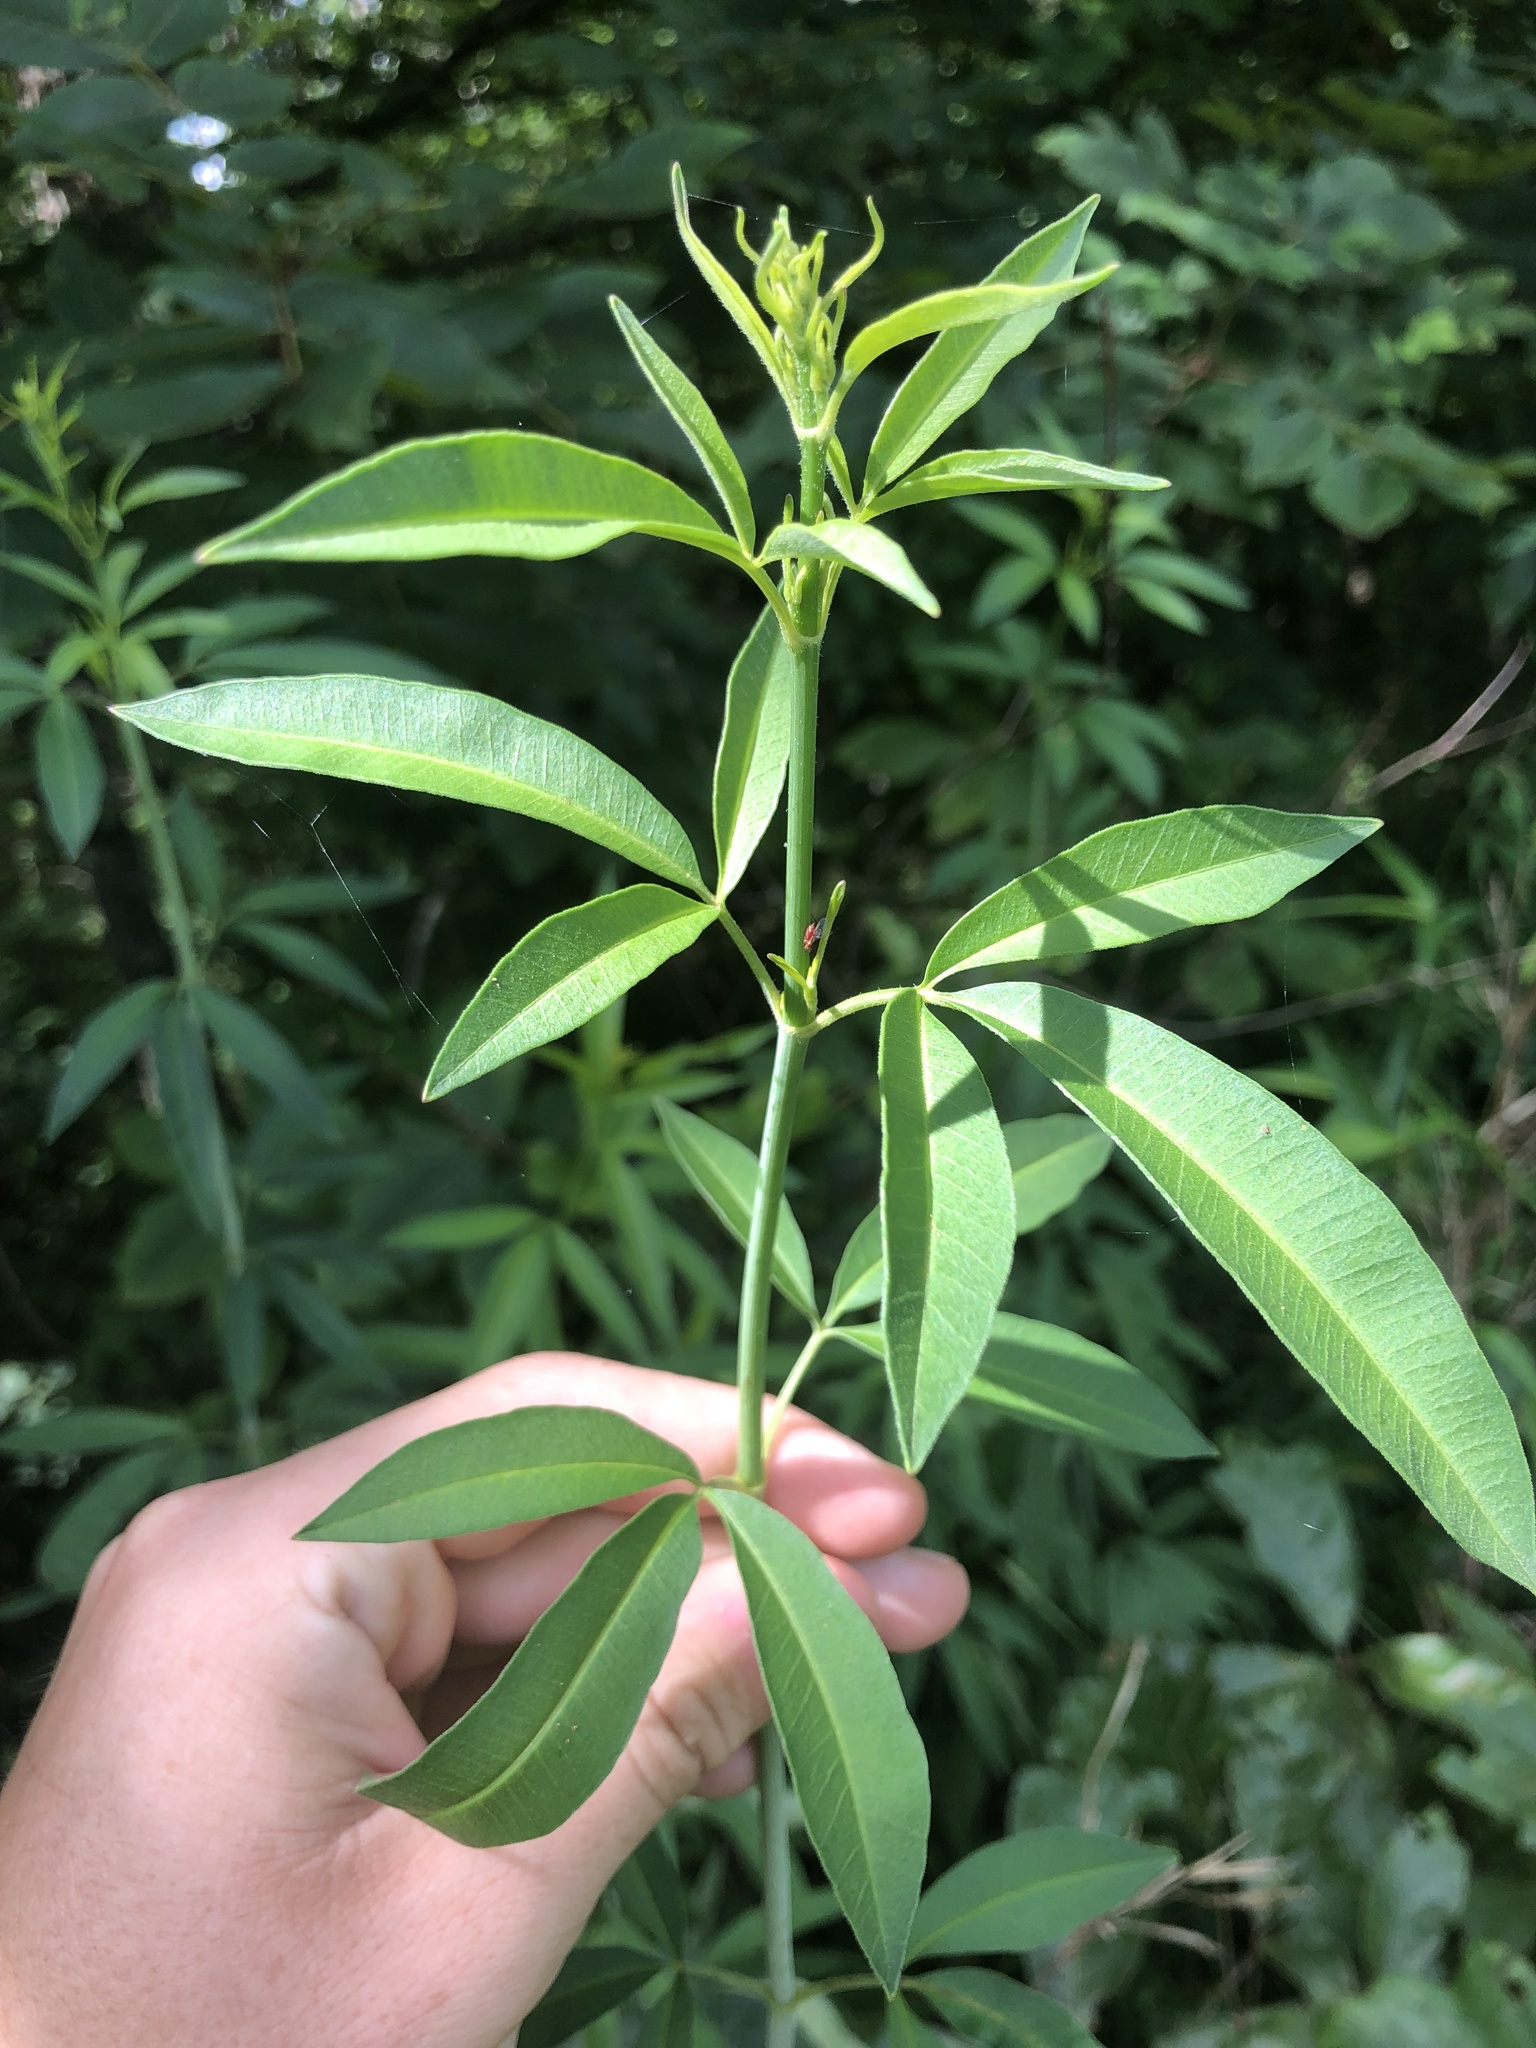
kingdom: Plantae
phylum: Tracheophyta
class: Magnoliopsida
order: Asterales
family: Asteraceae
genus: Coreopsis
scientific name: Coreopsis tripteris
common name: Tall coreopsis
